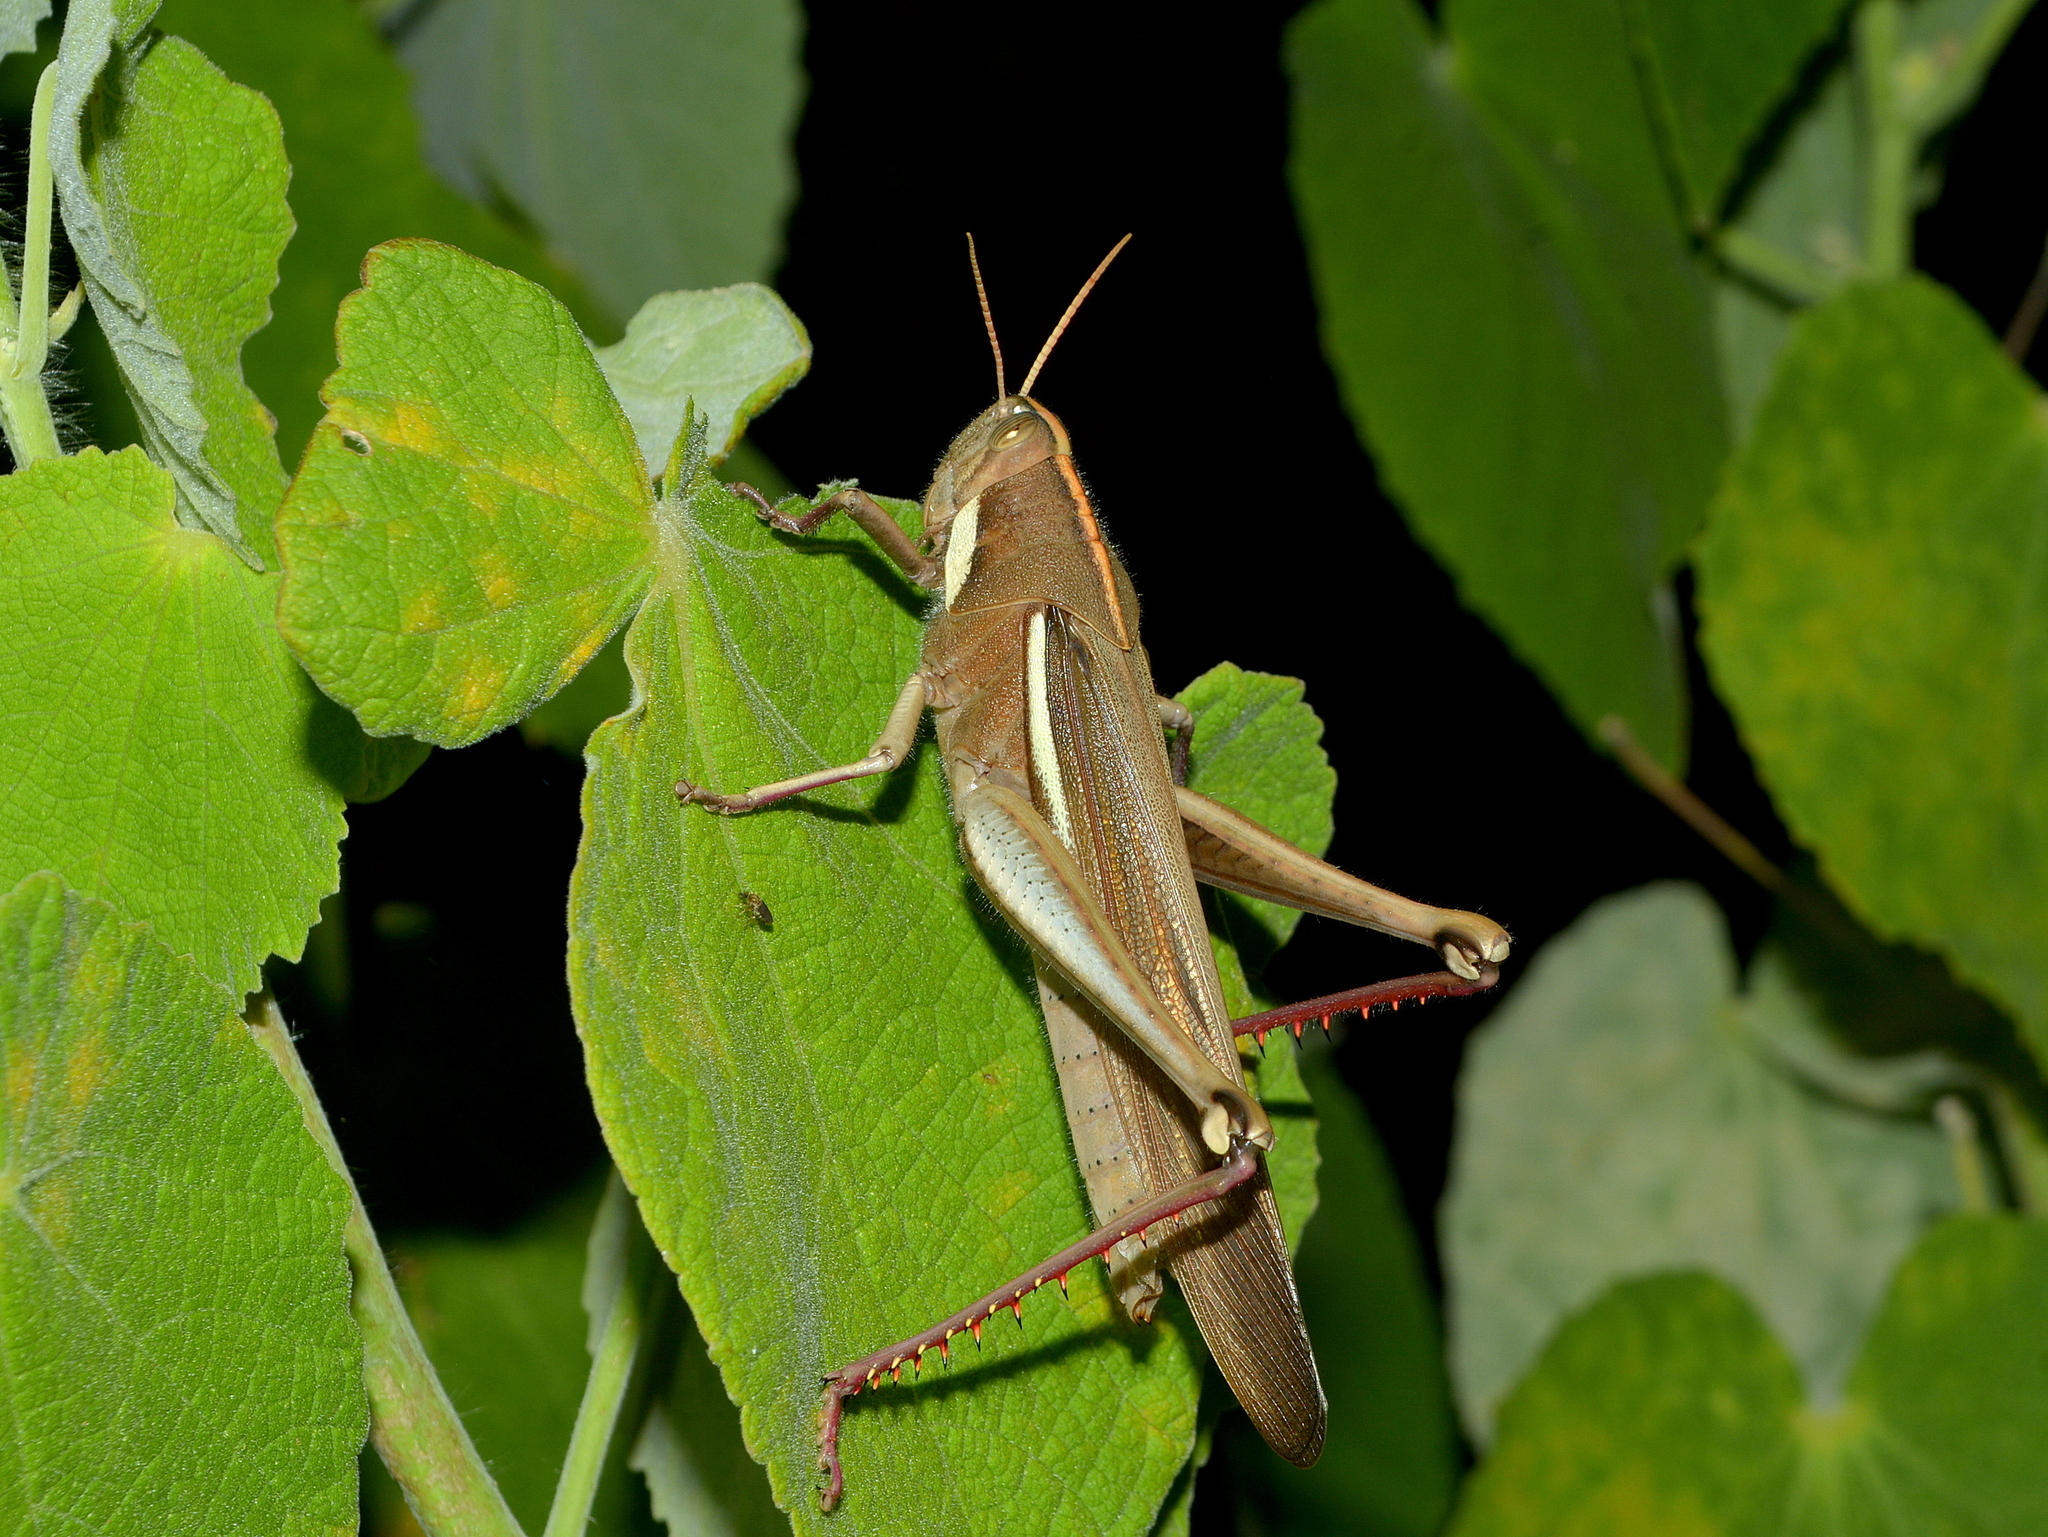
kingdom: Animalia
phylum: Arthropoda
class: Insecta
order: Orthoptera
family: Acrididae
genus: Schistocerca
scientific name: Schistocerca flavofasciata
